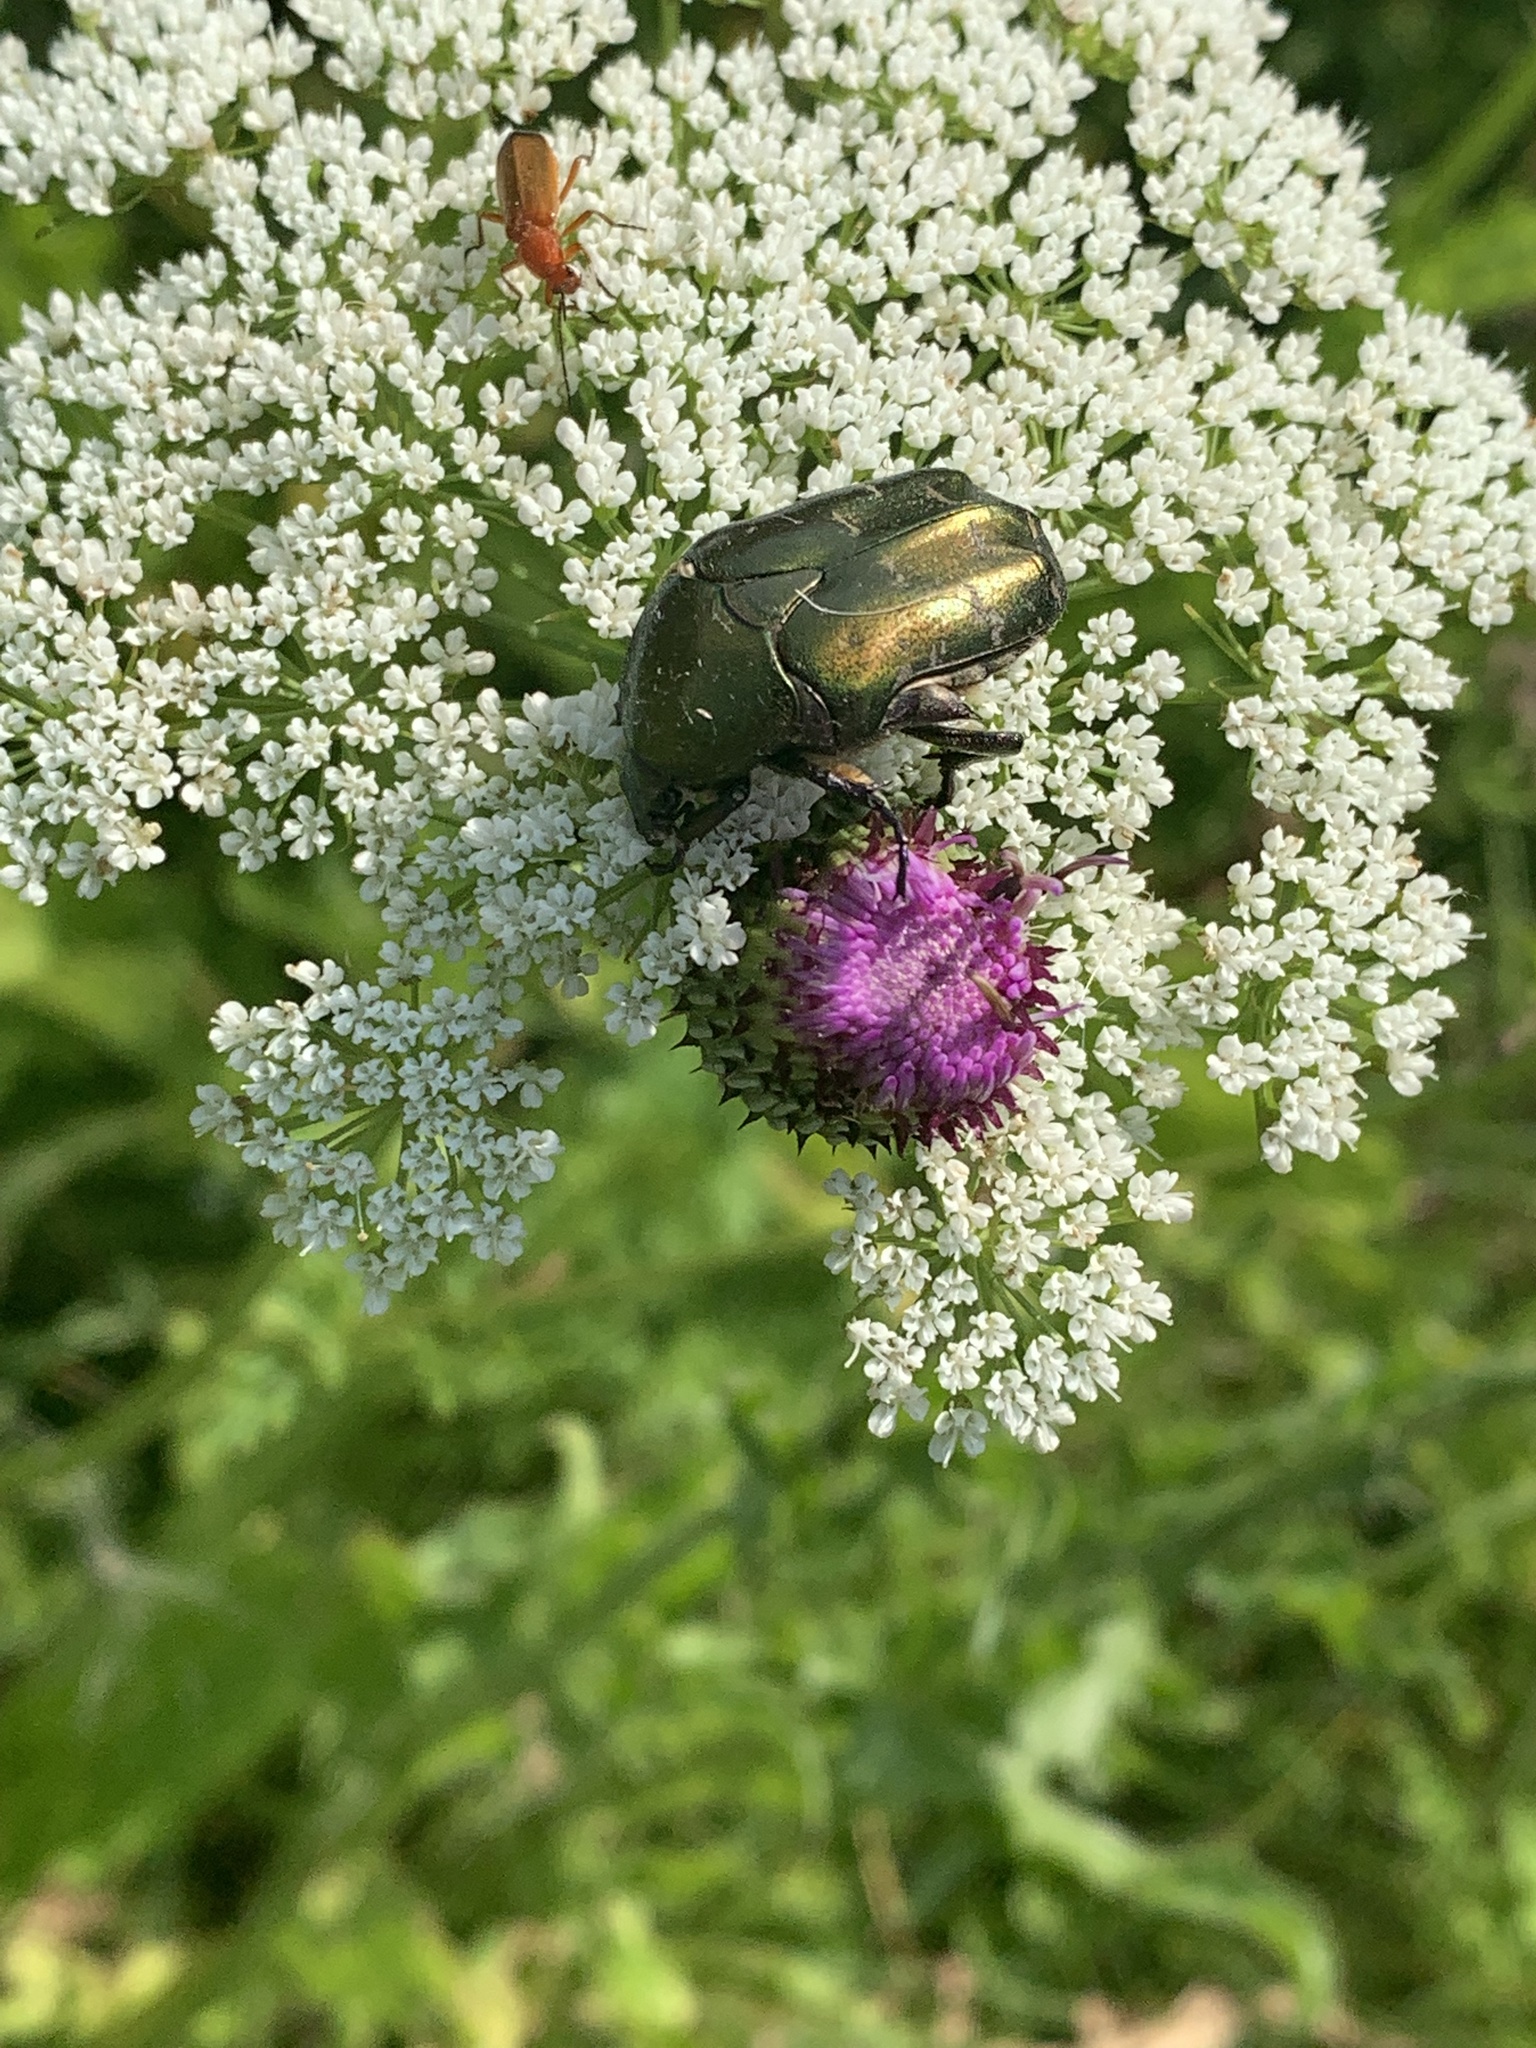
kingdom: Animalia
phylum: Arthropoda
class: Insecta
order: Coleoptera
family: Scarabaeidae
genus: Protaetia
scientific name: Protaetia cuprea
